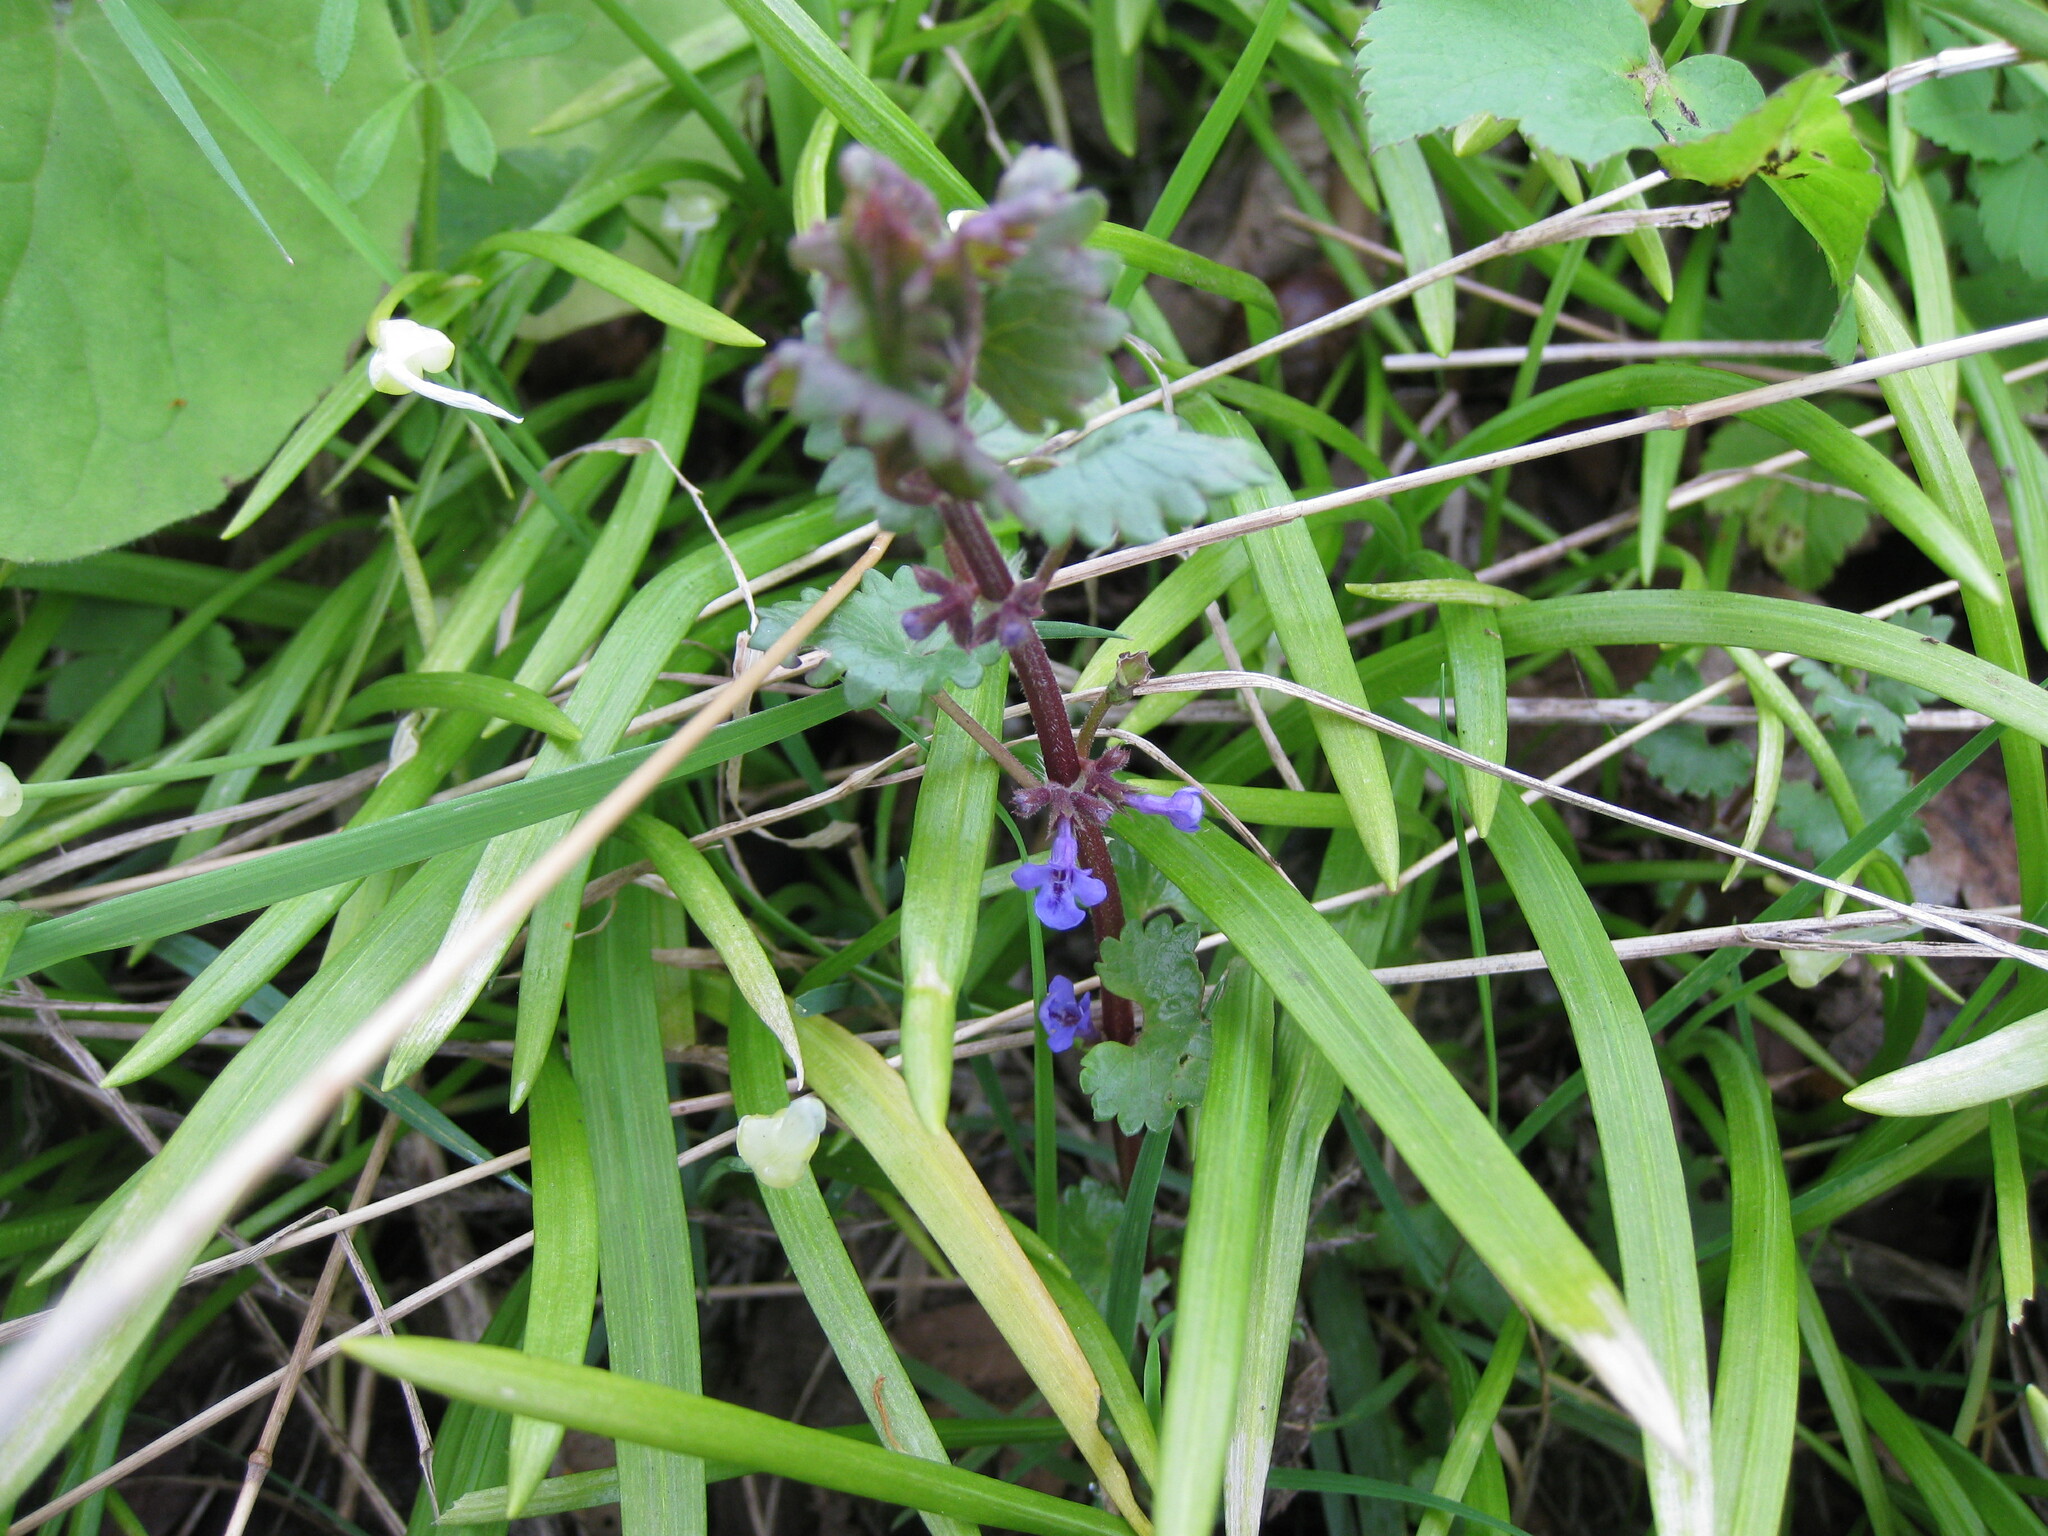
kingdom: Plantae
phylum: Tracheophyta
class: Magnoliopsida
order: Lamiales
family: Lamiaceae
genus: Glechoma
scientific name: Glechoma hederacea
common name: Ground ivy
